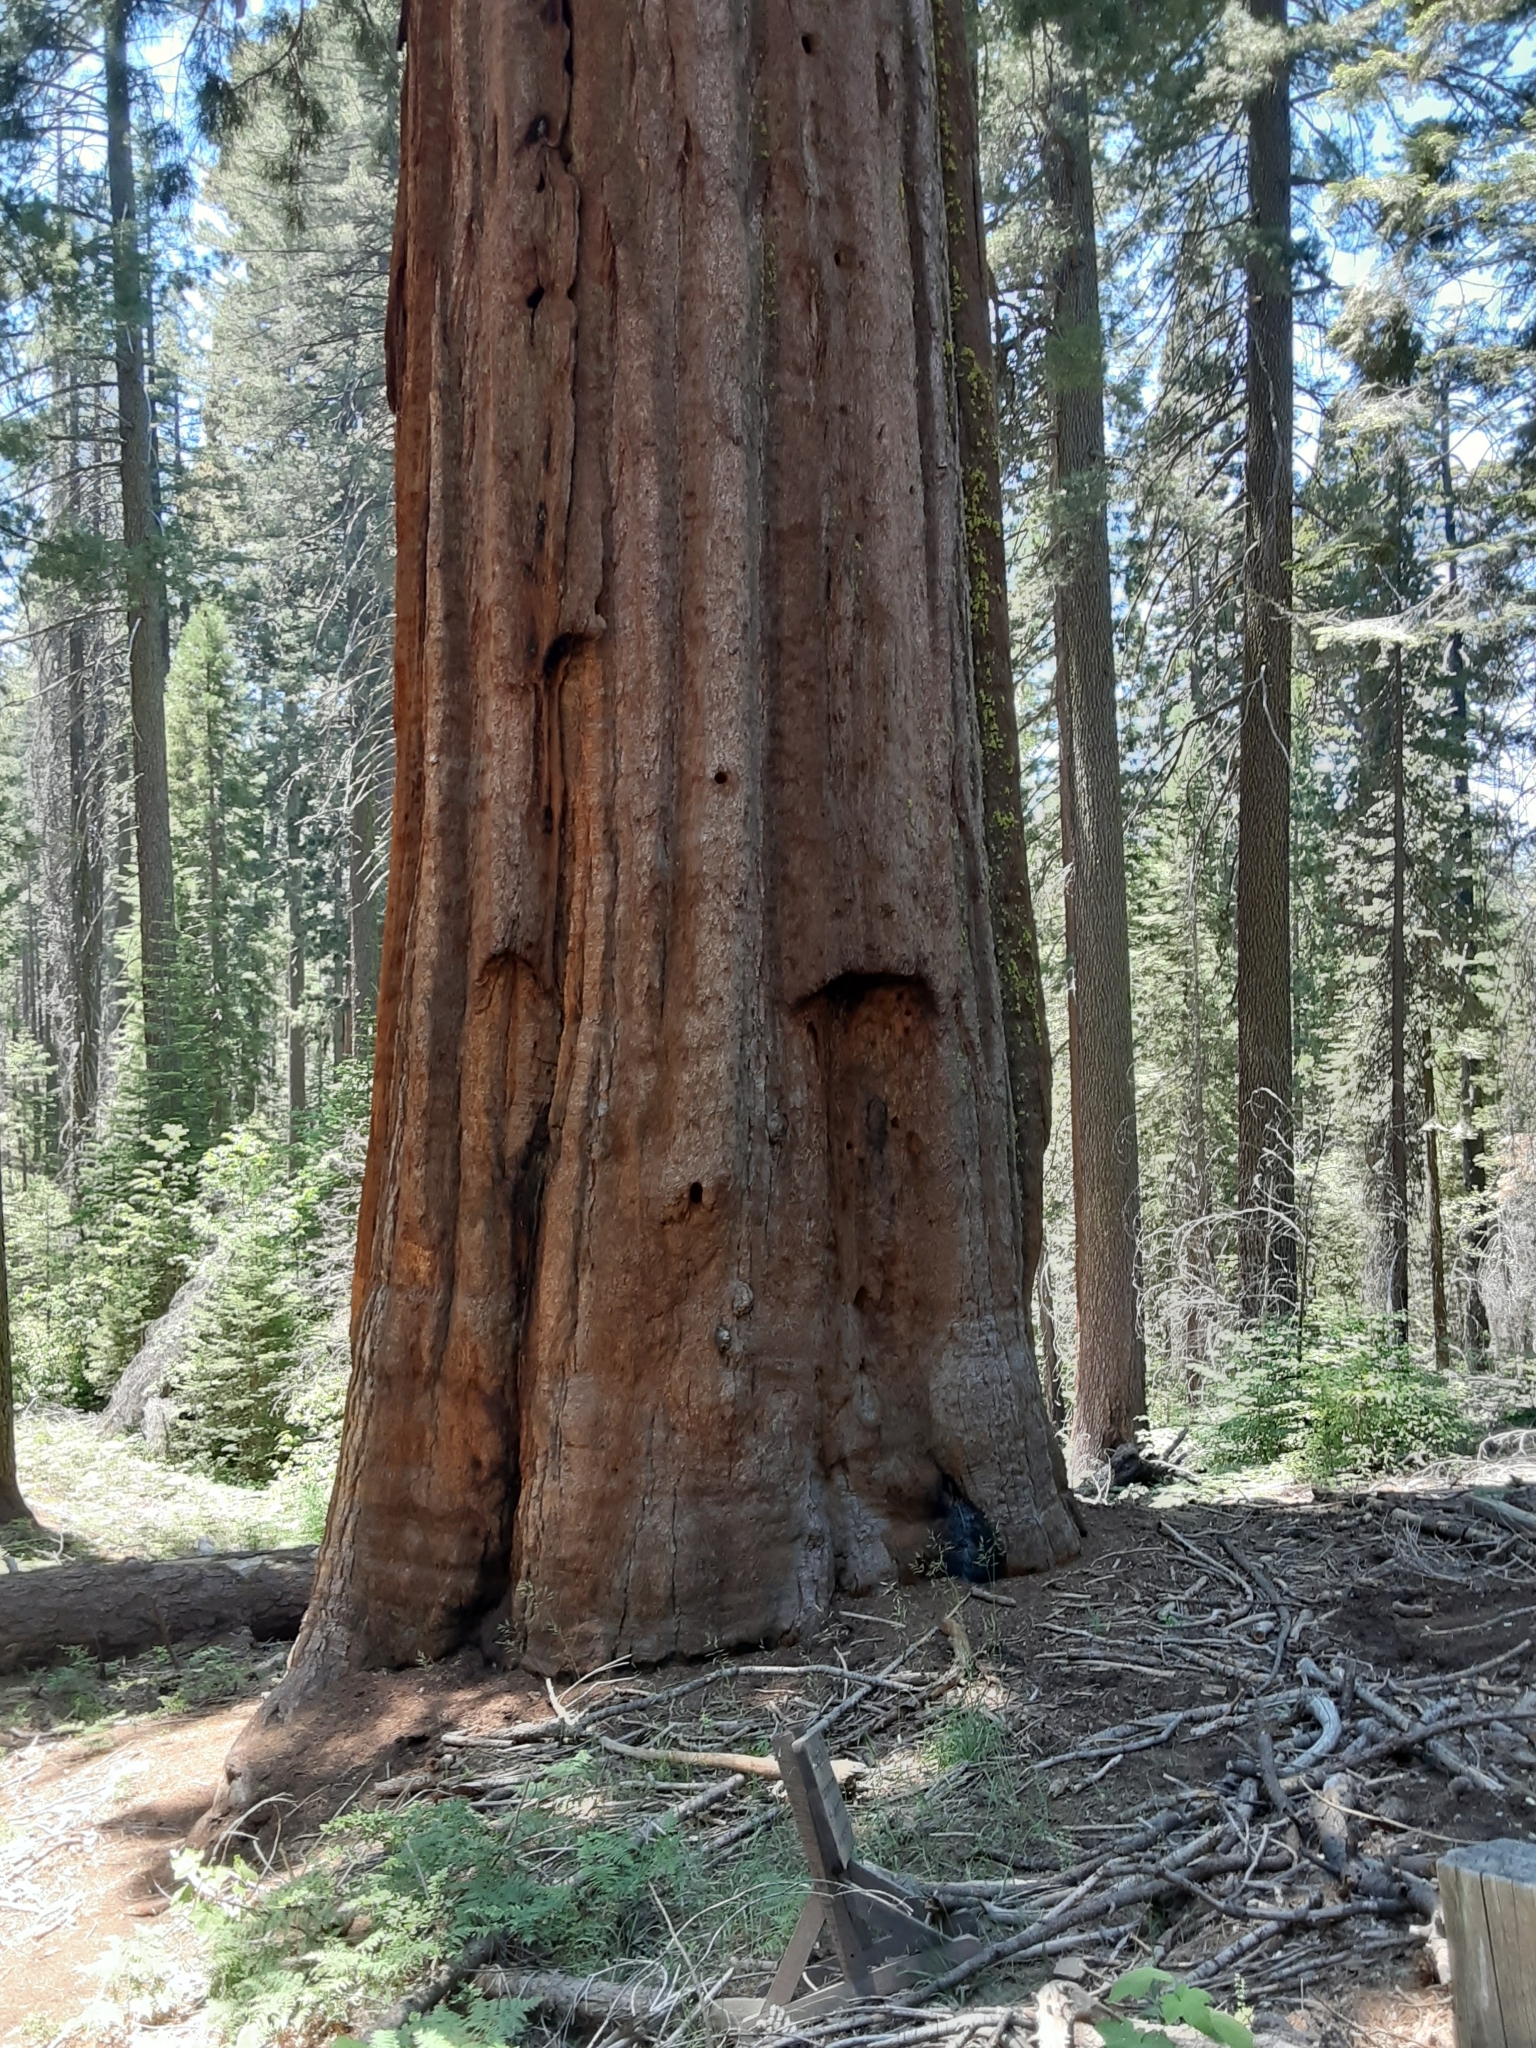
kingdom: Plantae
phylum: Tracheophyta
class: Pinopsida
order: Pinales
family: Cupressaceae
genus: Sequoiadendron
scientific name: Sequoiadendron giganteum
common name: Wellingtonia
